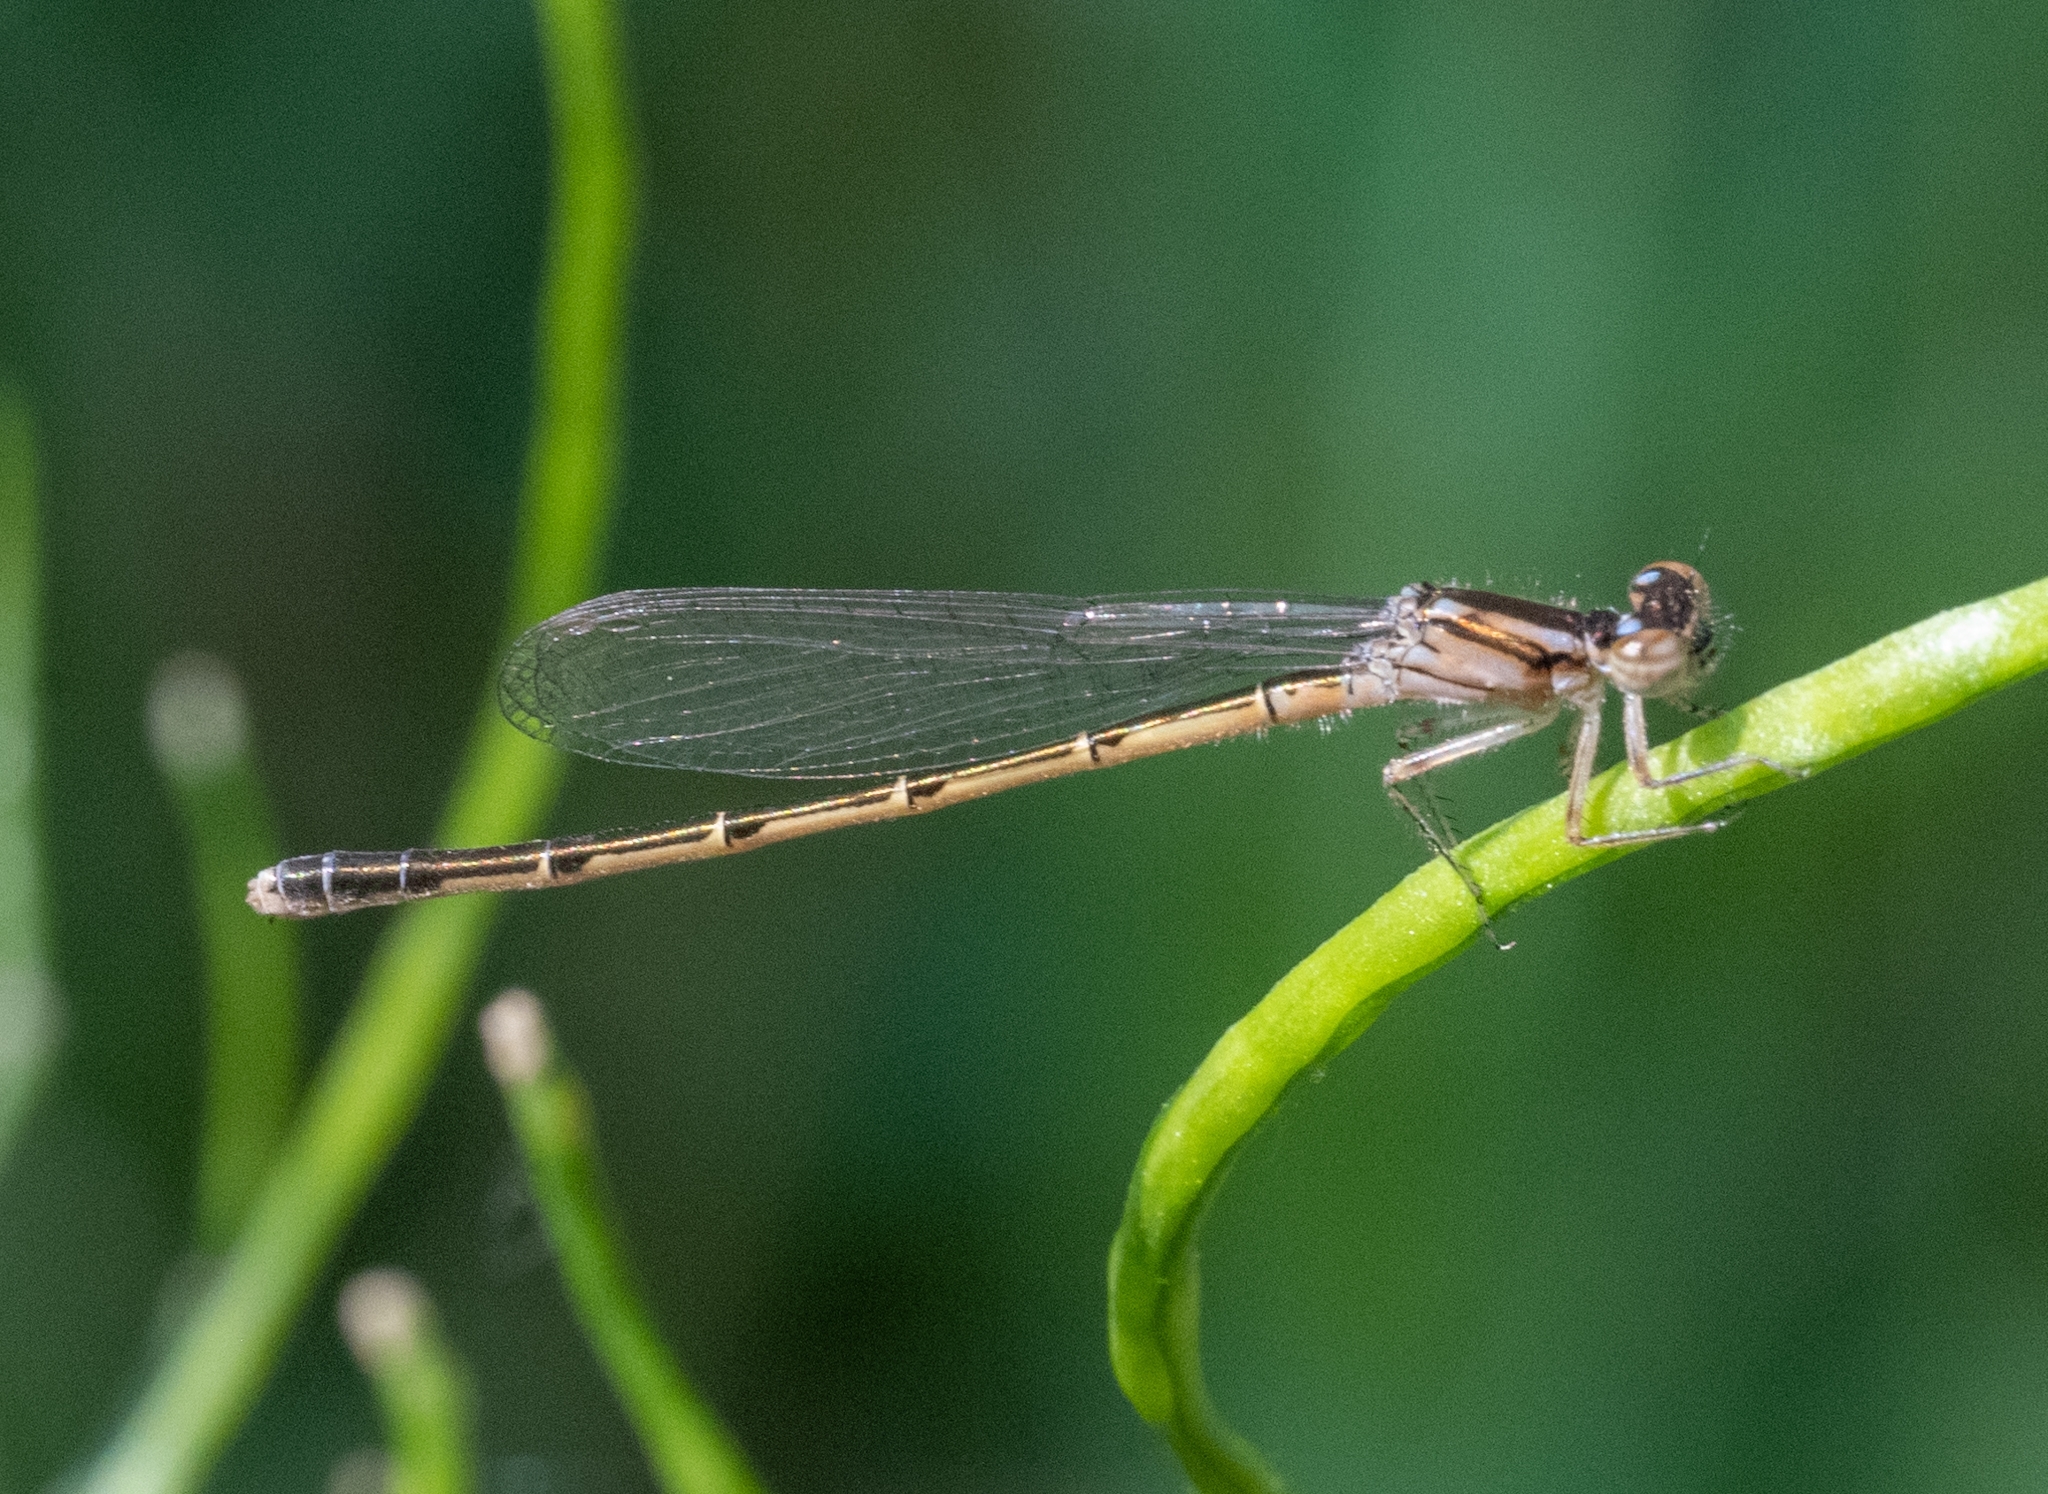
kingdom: Animalia
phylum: Arthropoda
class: Insecta
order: Odonata
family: Coenagrionidae
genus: Ischnura
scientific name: Ischnura posita
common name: Fragile forktail
